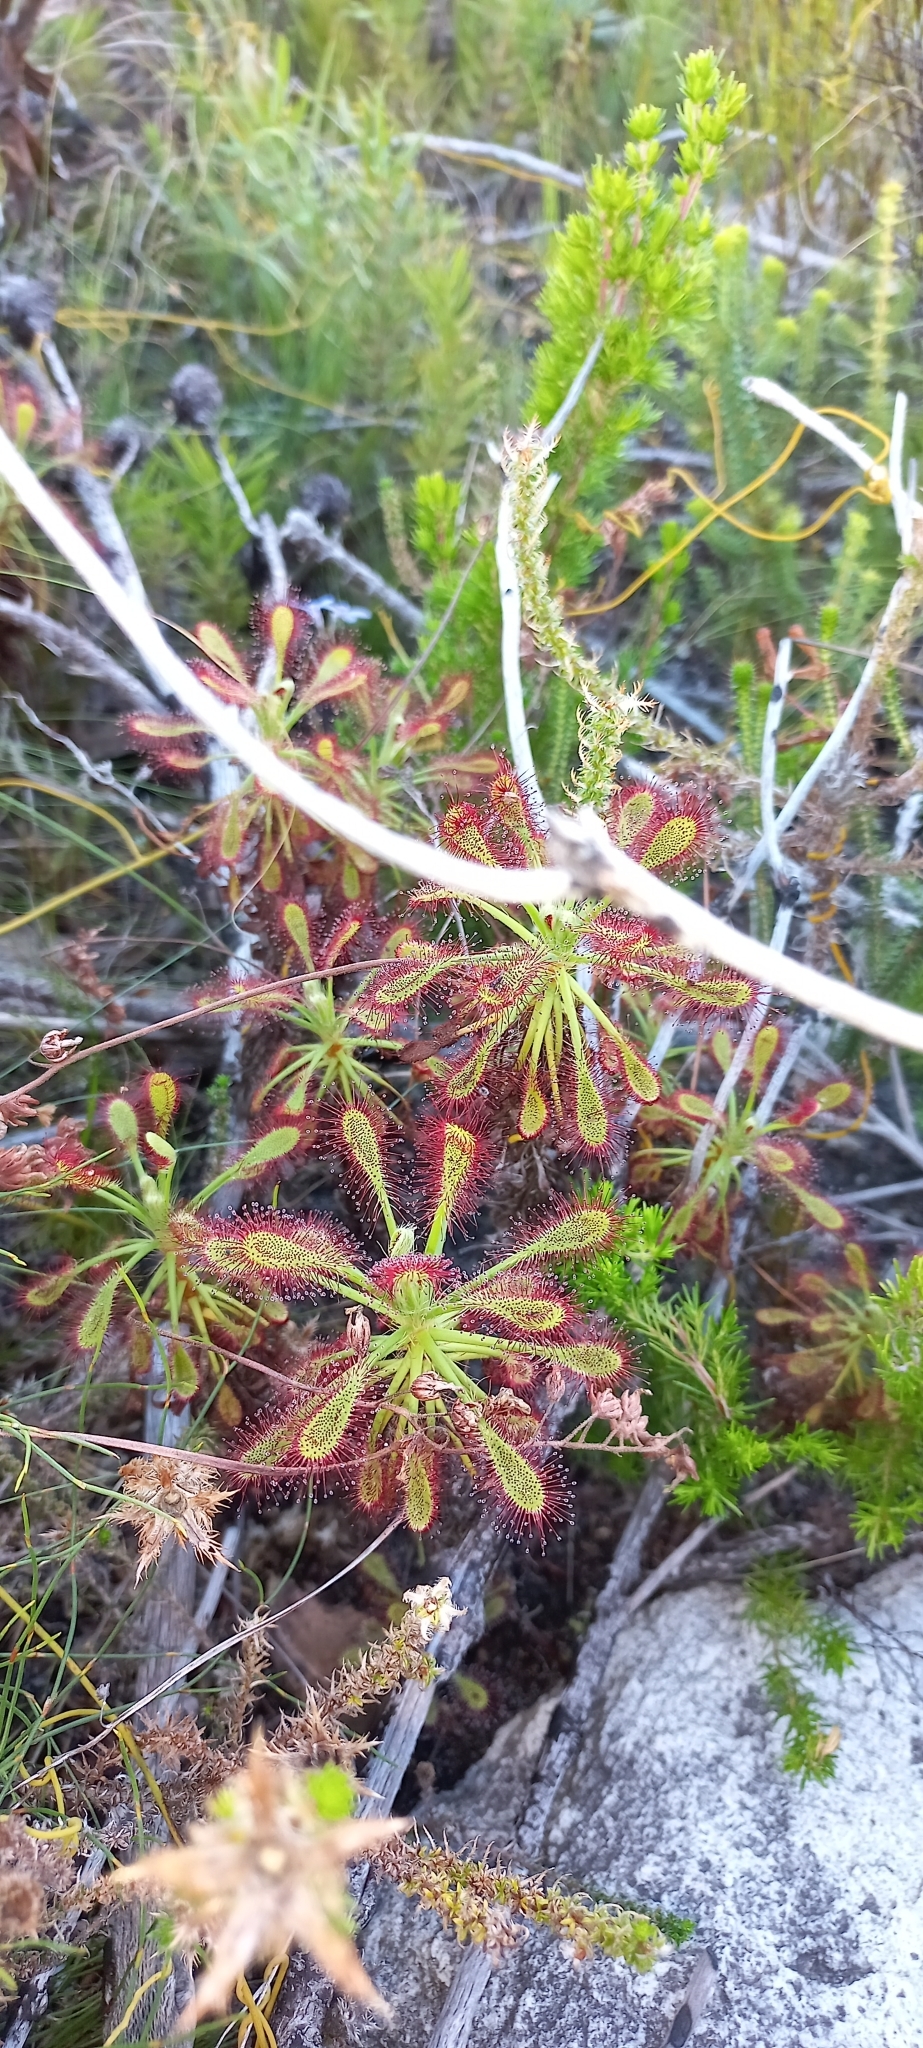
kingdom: Plantae
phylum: Tracheophyta
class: Magnoliopsida
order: Caryophyllales
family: Droseraceae
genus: Drosera
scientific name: Drosera glabripes
